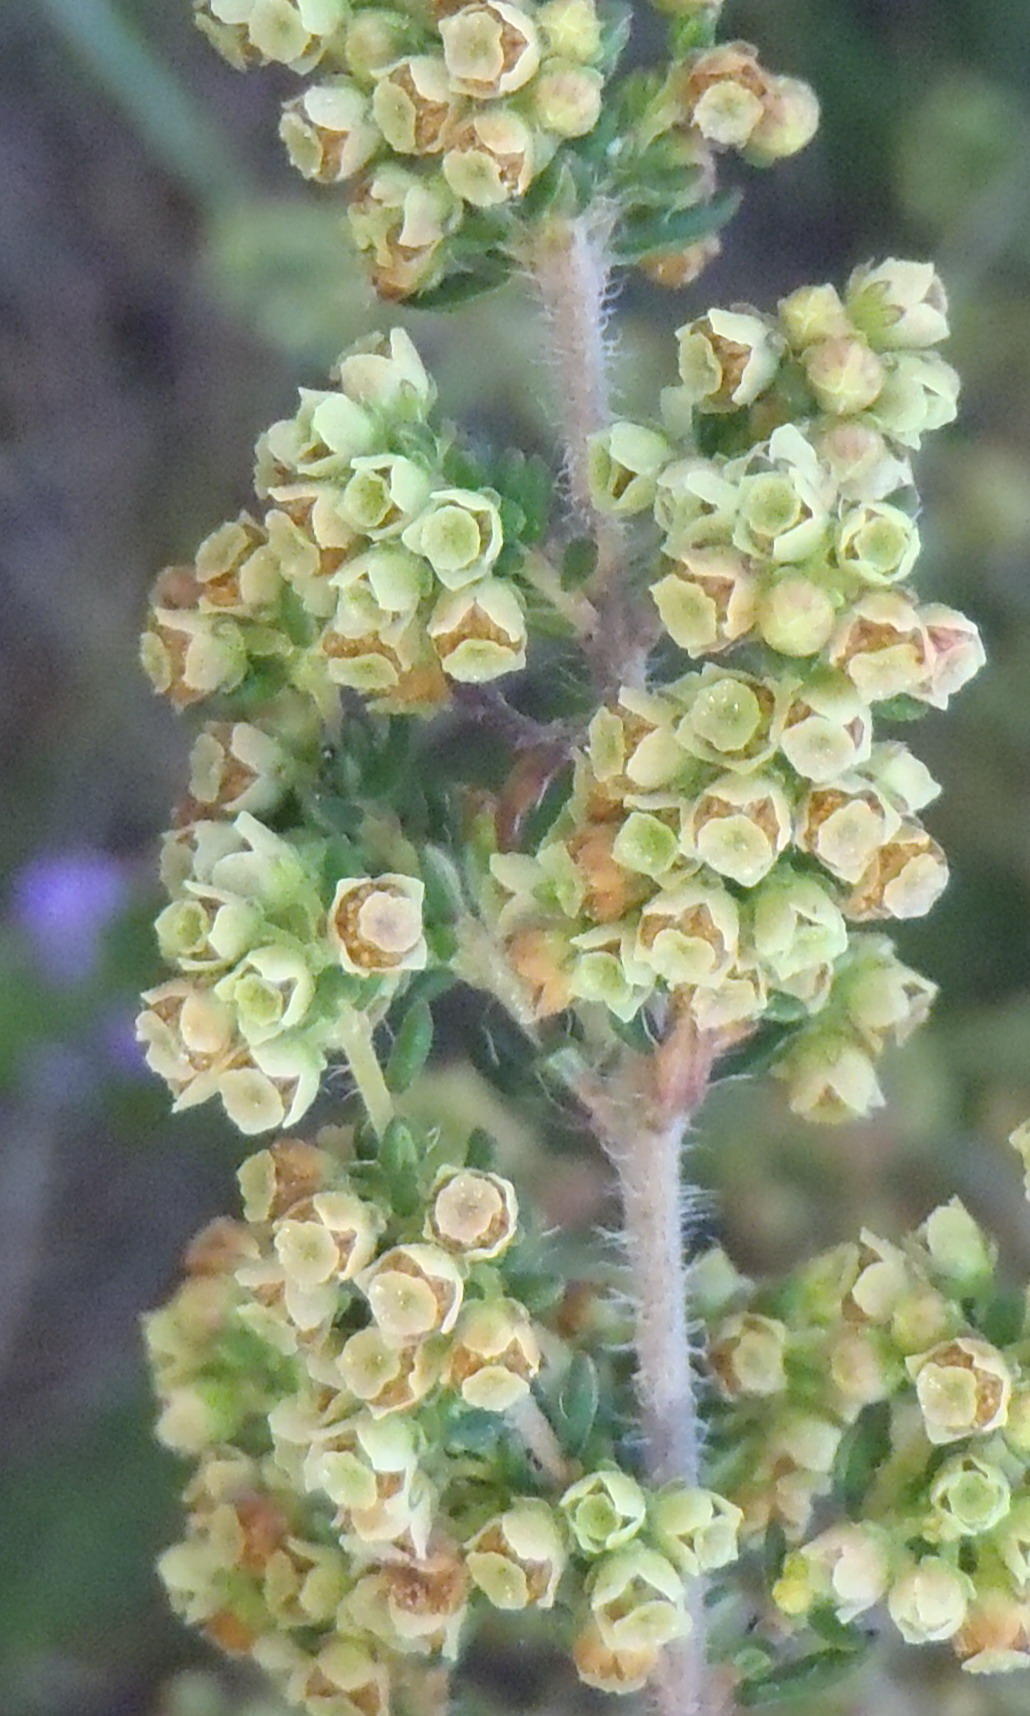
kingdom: Plantae
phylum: Tracheophyta
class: Magnoliopsida
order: Ericales
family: Ericaceae
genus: Erica
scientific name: Erica leucopelta
